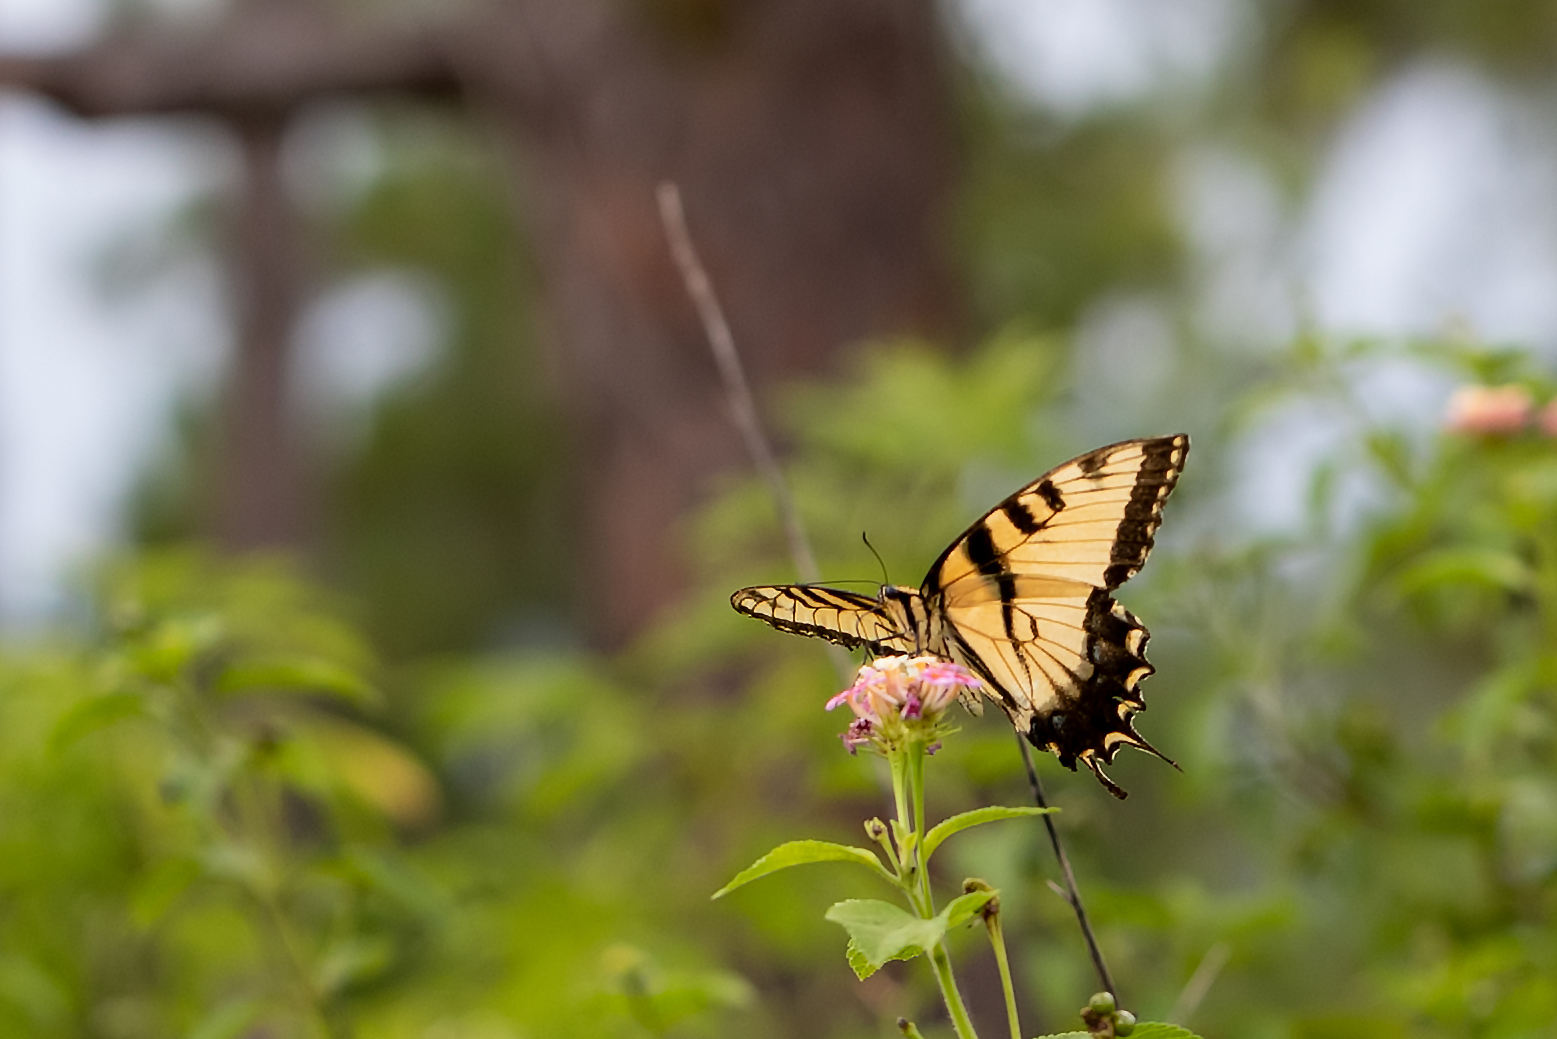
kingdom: Animalia
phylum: Arthropoda
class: Insecta
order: Lepidoptera
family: Papilionidae
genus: Papilio
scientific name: Papilio glaucus
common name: Tiger swallowtail
